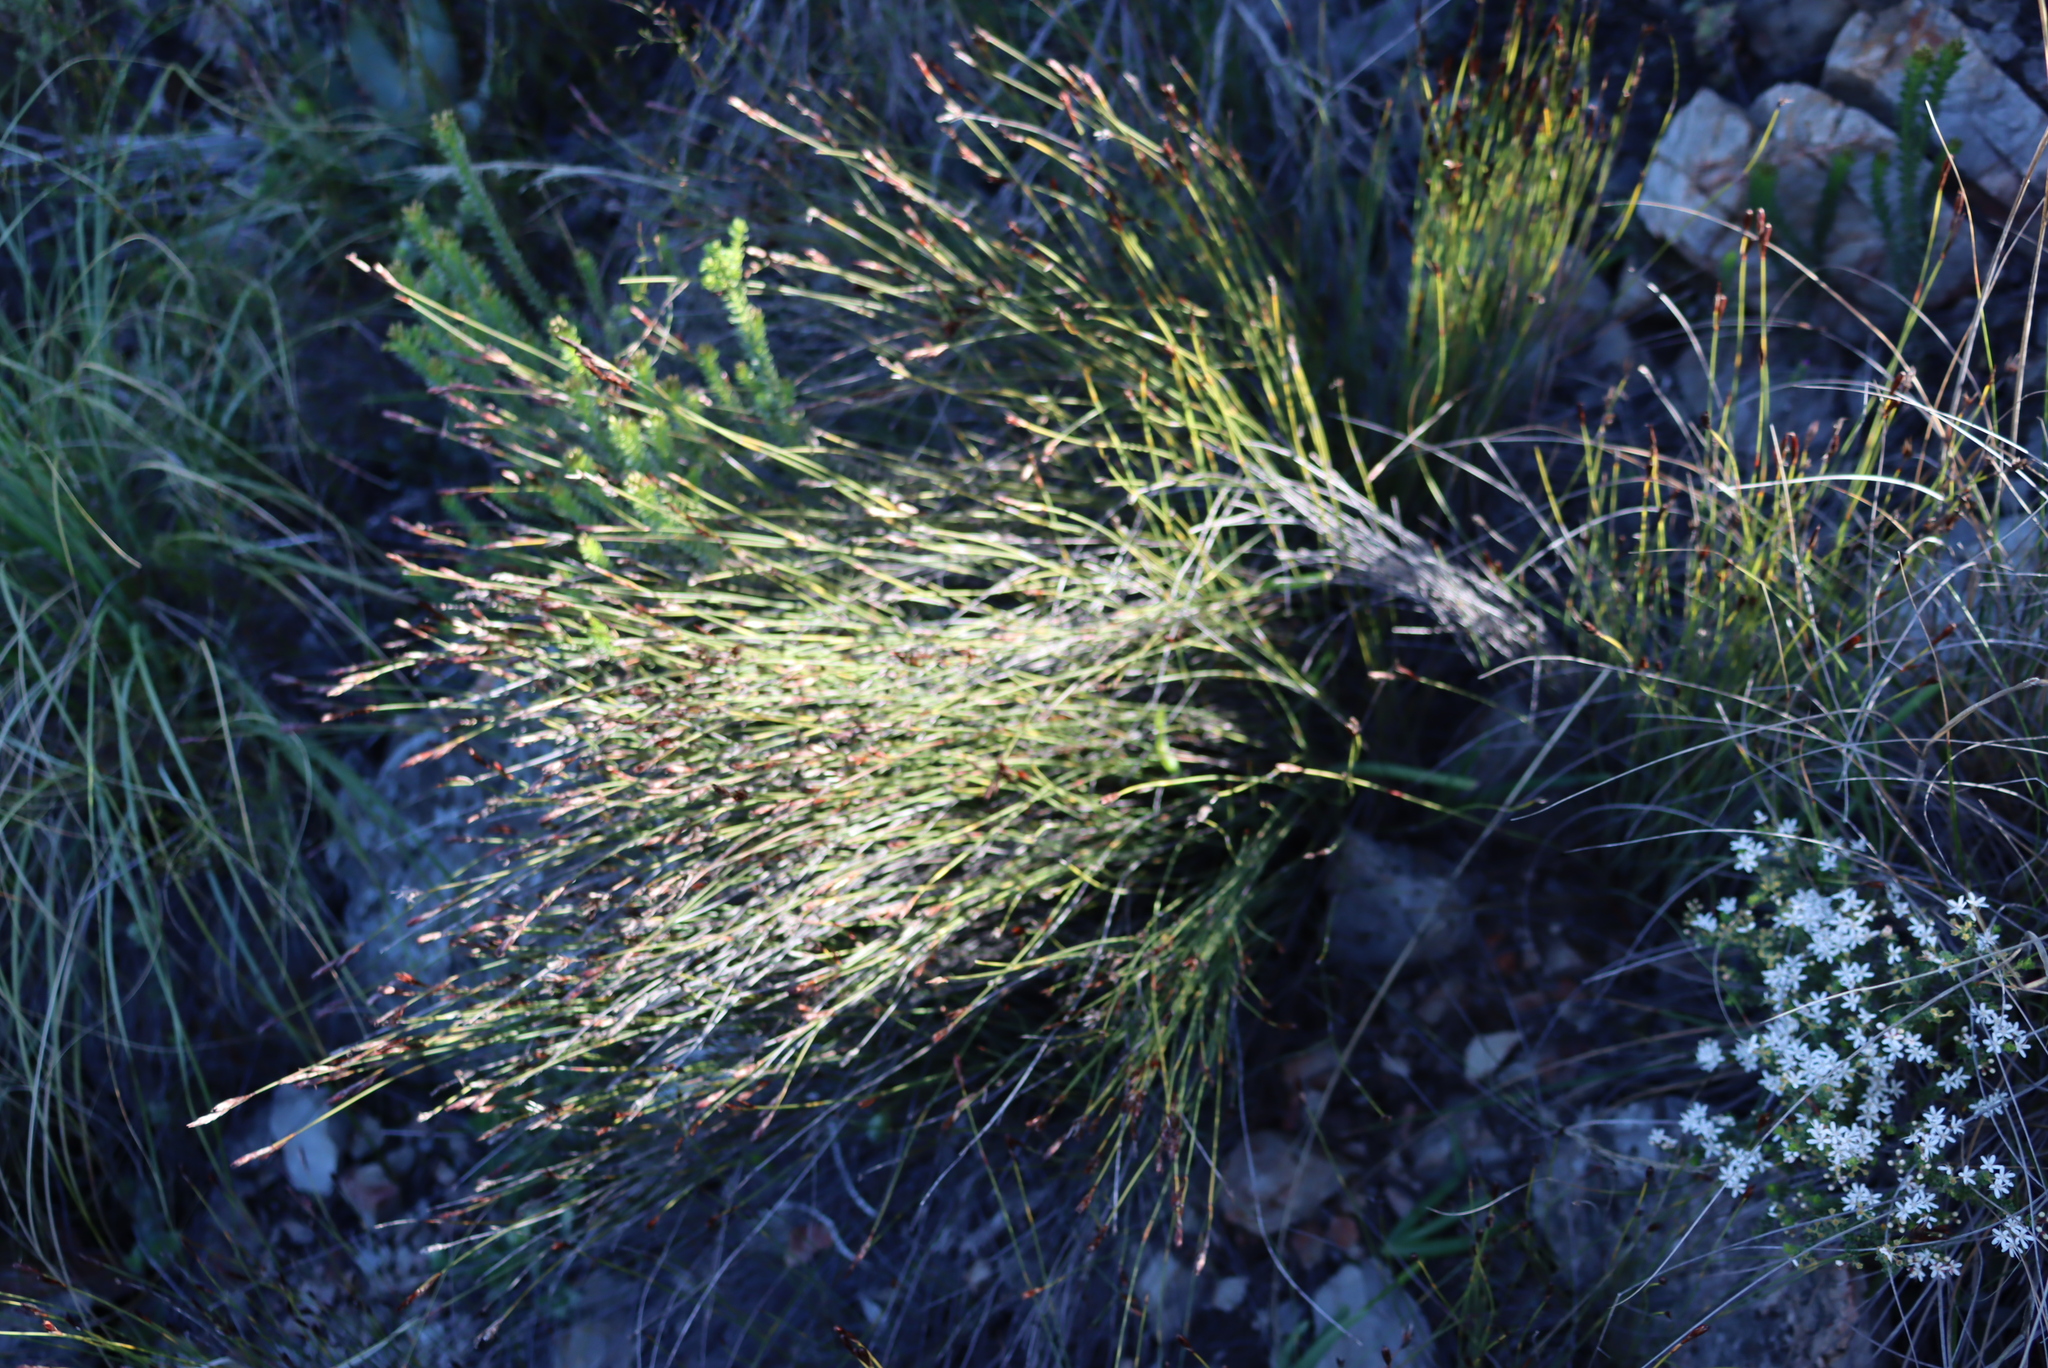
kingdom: Plantae
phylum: Tracheophyta
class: Liliopsida
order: Poales
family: Restionaceae
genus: Hypodiscus
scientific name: Hypodiscus striatus
